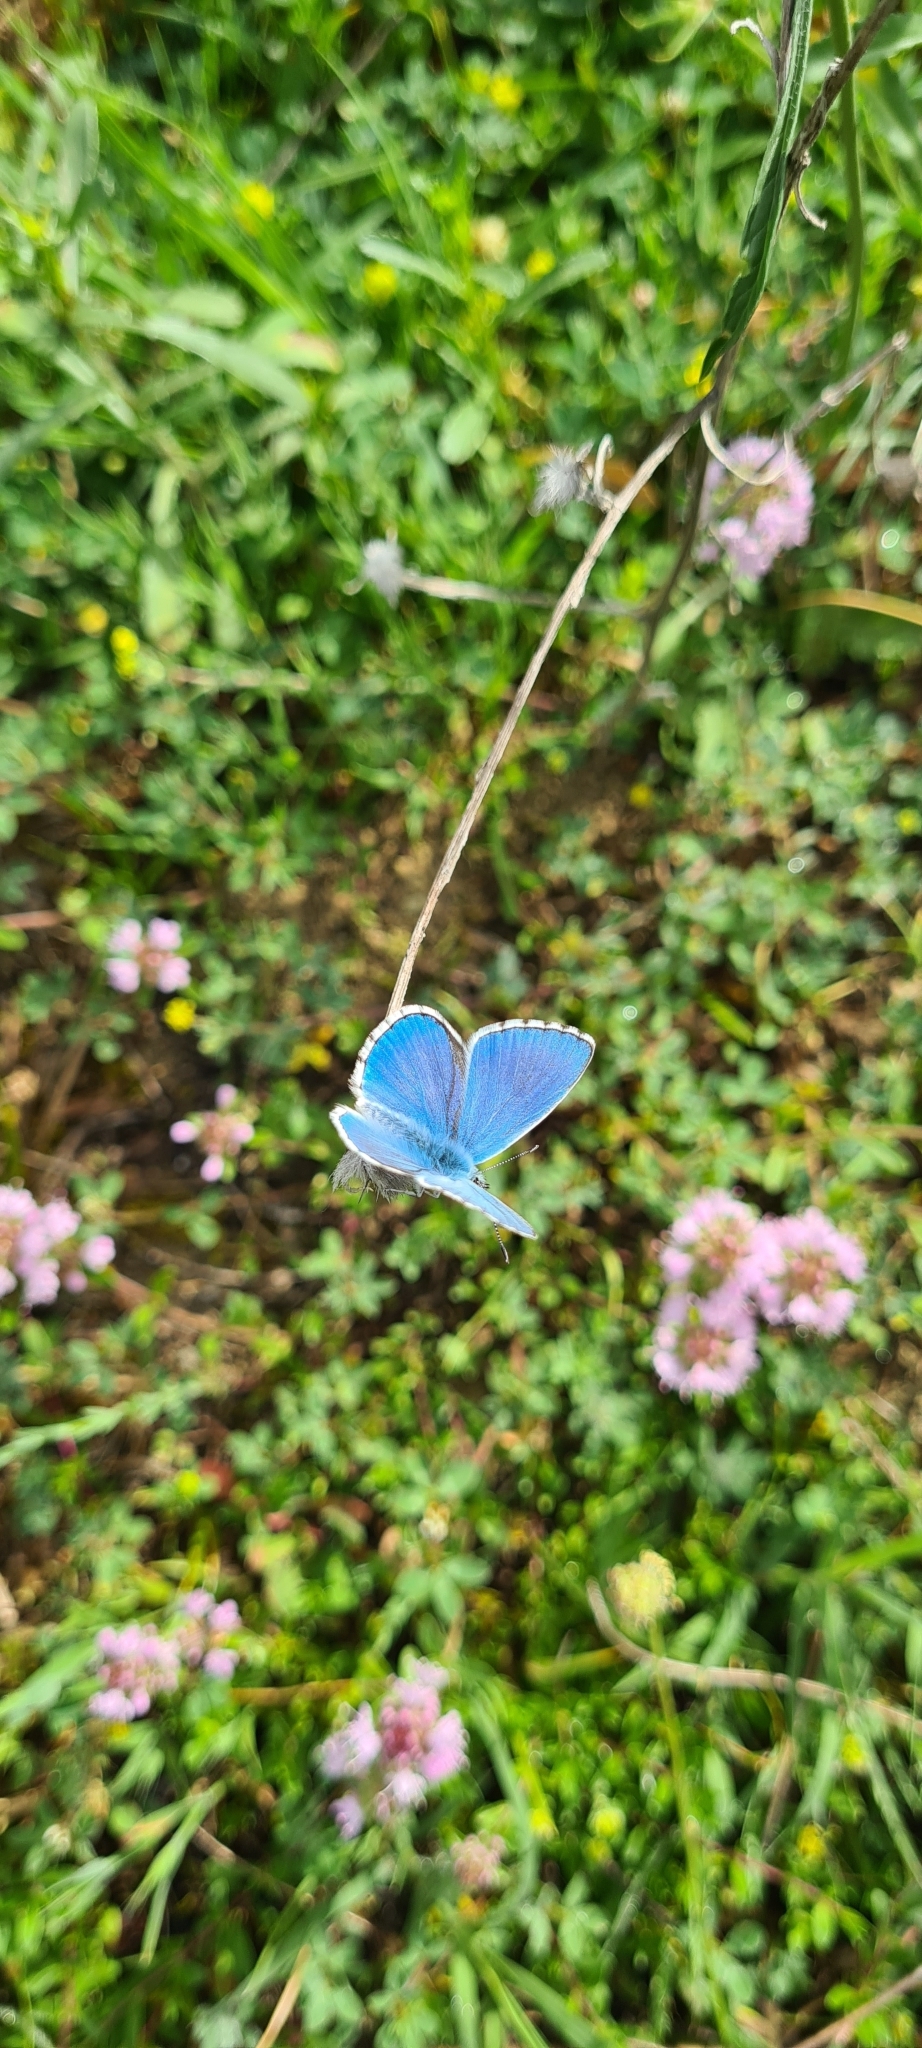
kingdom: Animalia
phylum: Arthropoda
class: Insecta
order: Lepidoptera
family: Lycaenidae
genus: Lysandra
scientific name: Lysandra bellargus
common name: Adonis blue
